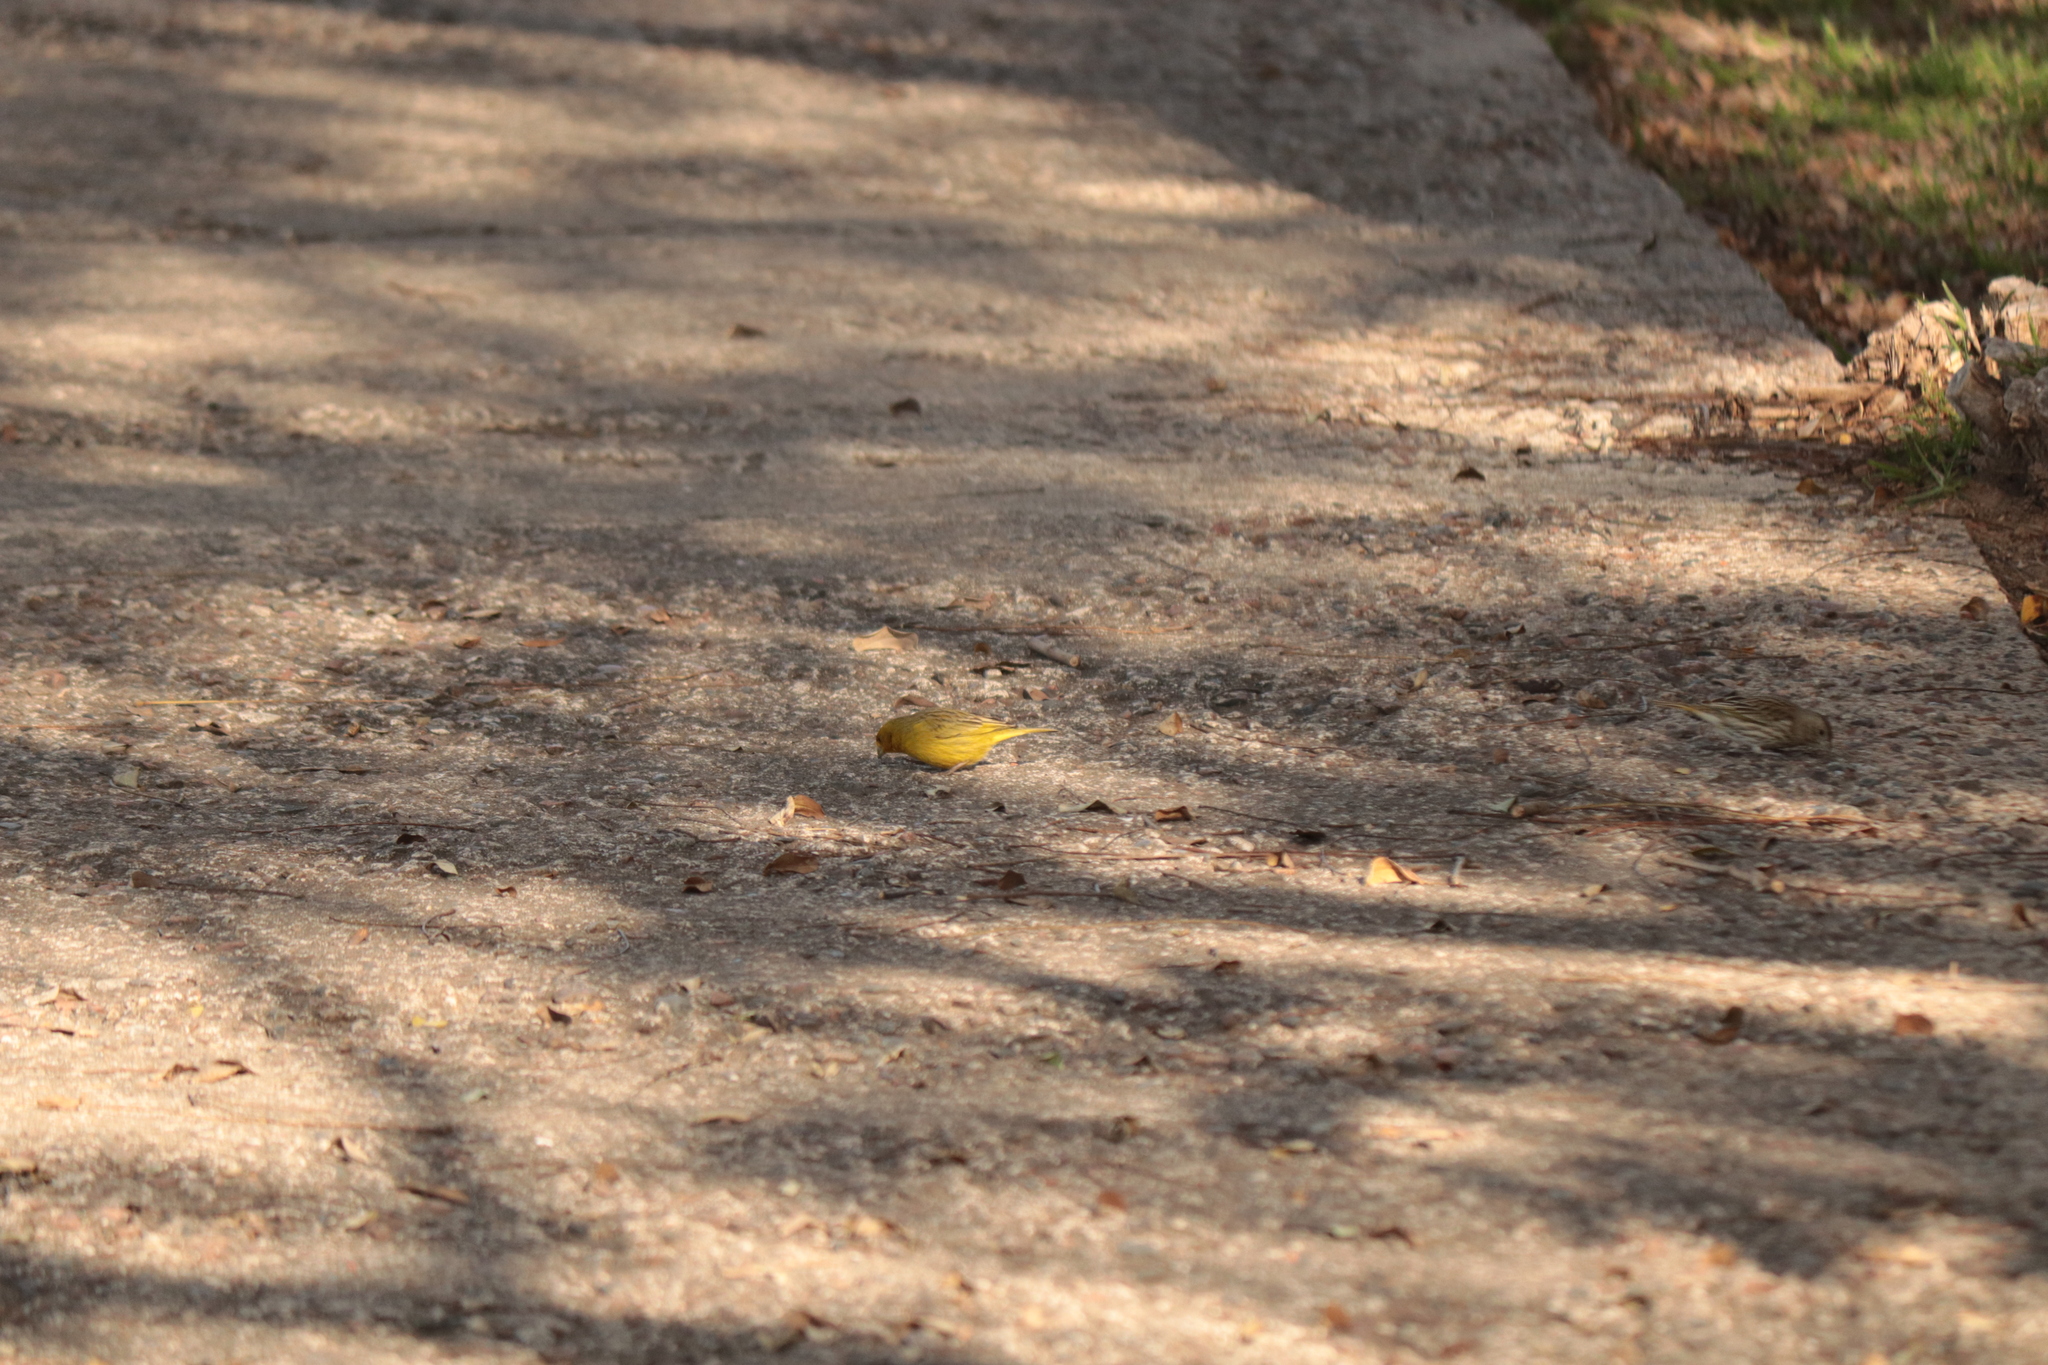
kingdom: Animalia
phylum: Chordata
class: Aves
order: Passeriformes
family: Thraupidae
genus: Sicalis
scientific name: Sicalis flaveola
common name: Saffron finch
